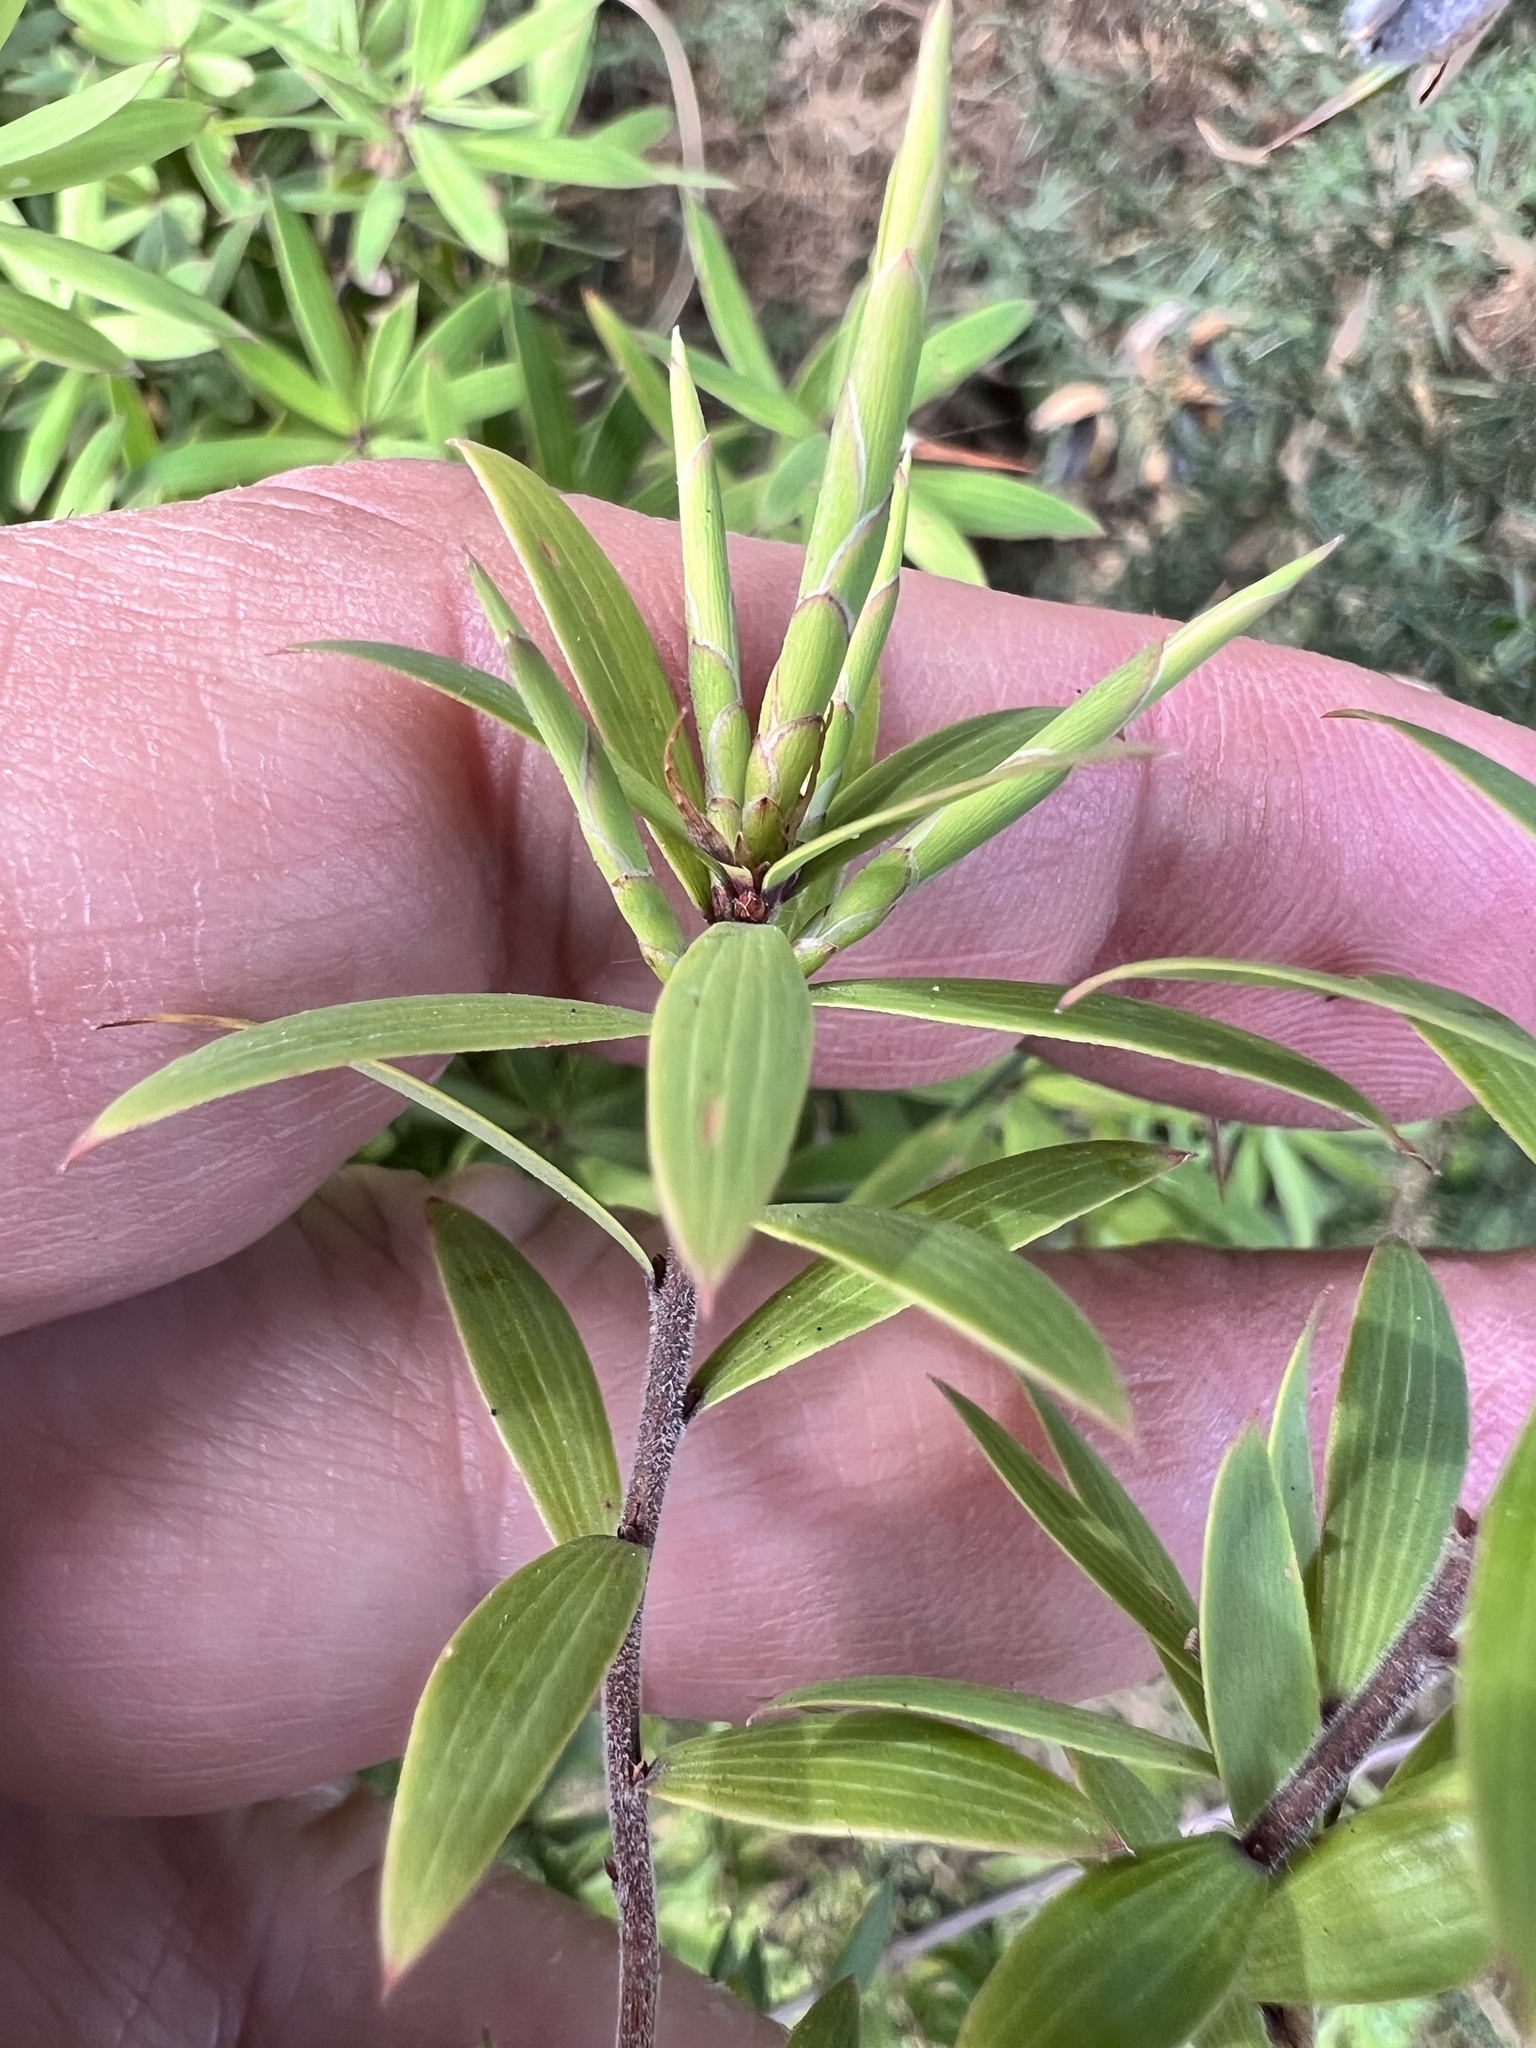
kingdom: Plantae
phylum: Tracheophyta
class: Magnoliopsida
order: Ericales
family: Ericaceae
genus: Leucopogon
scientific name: Leucopogon fasciculatus
